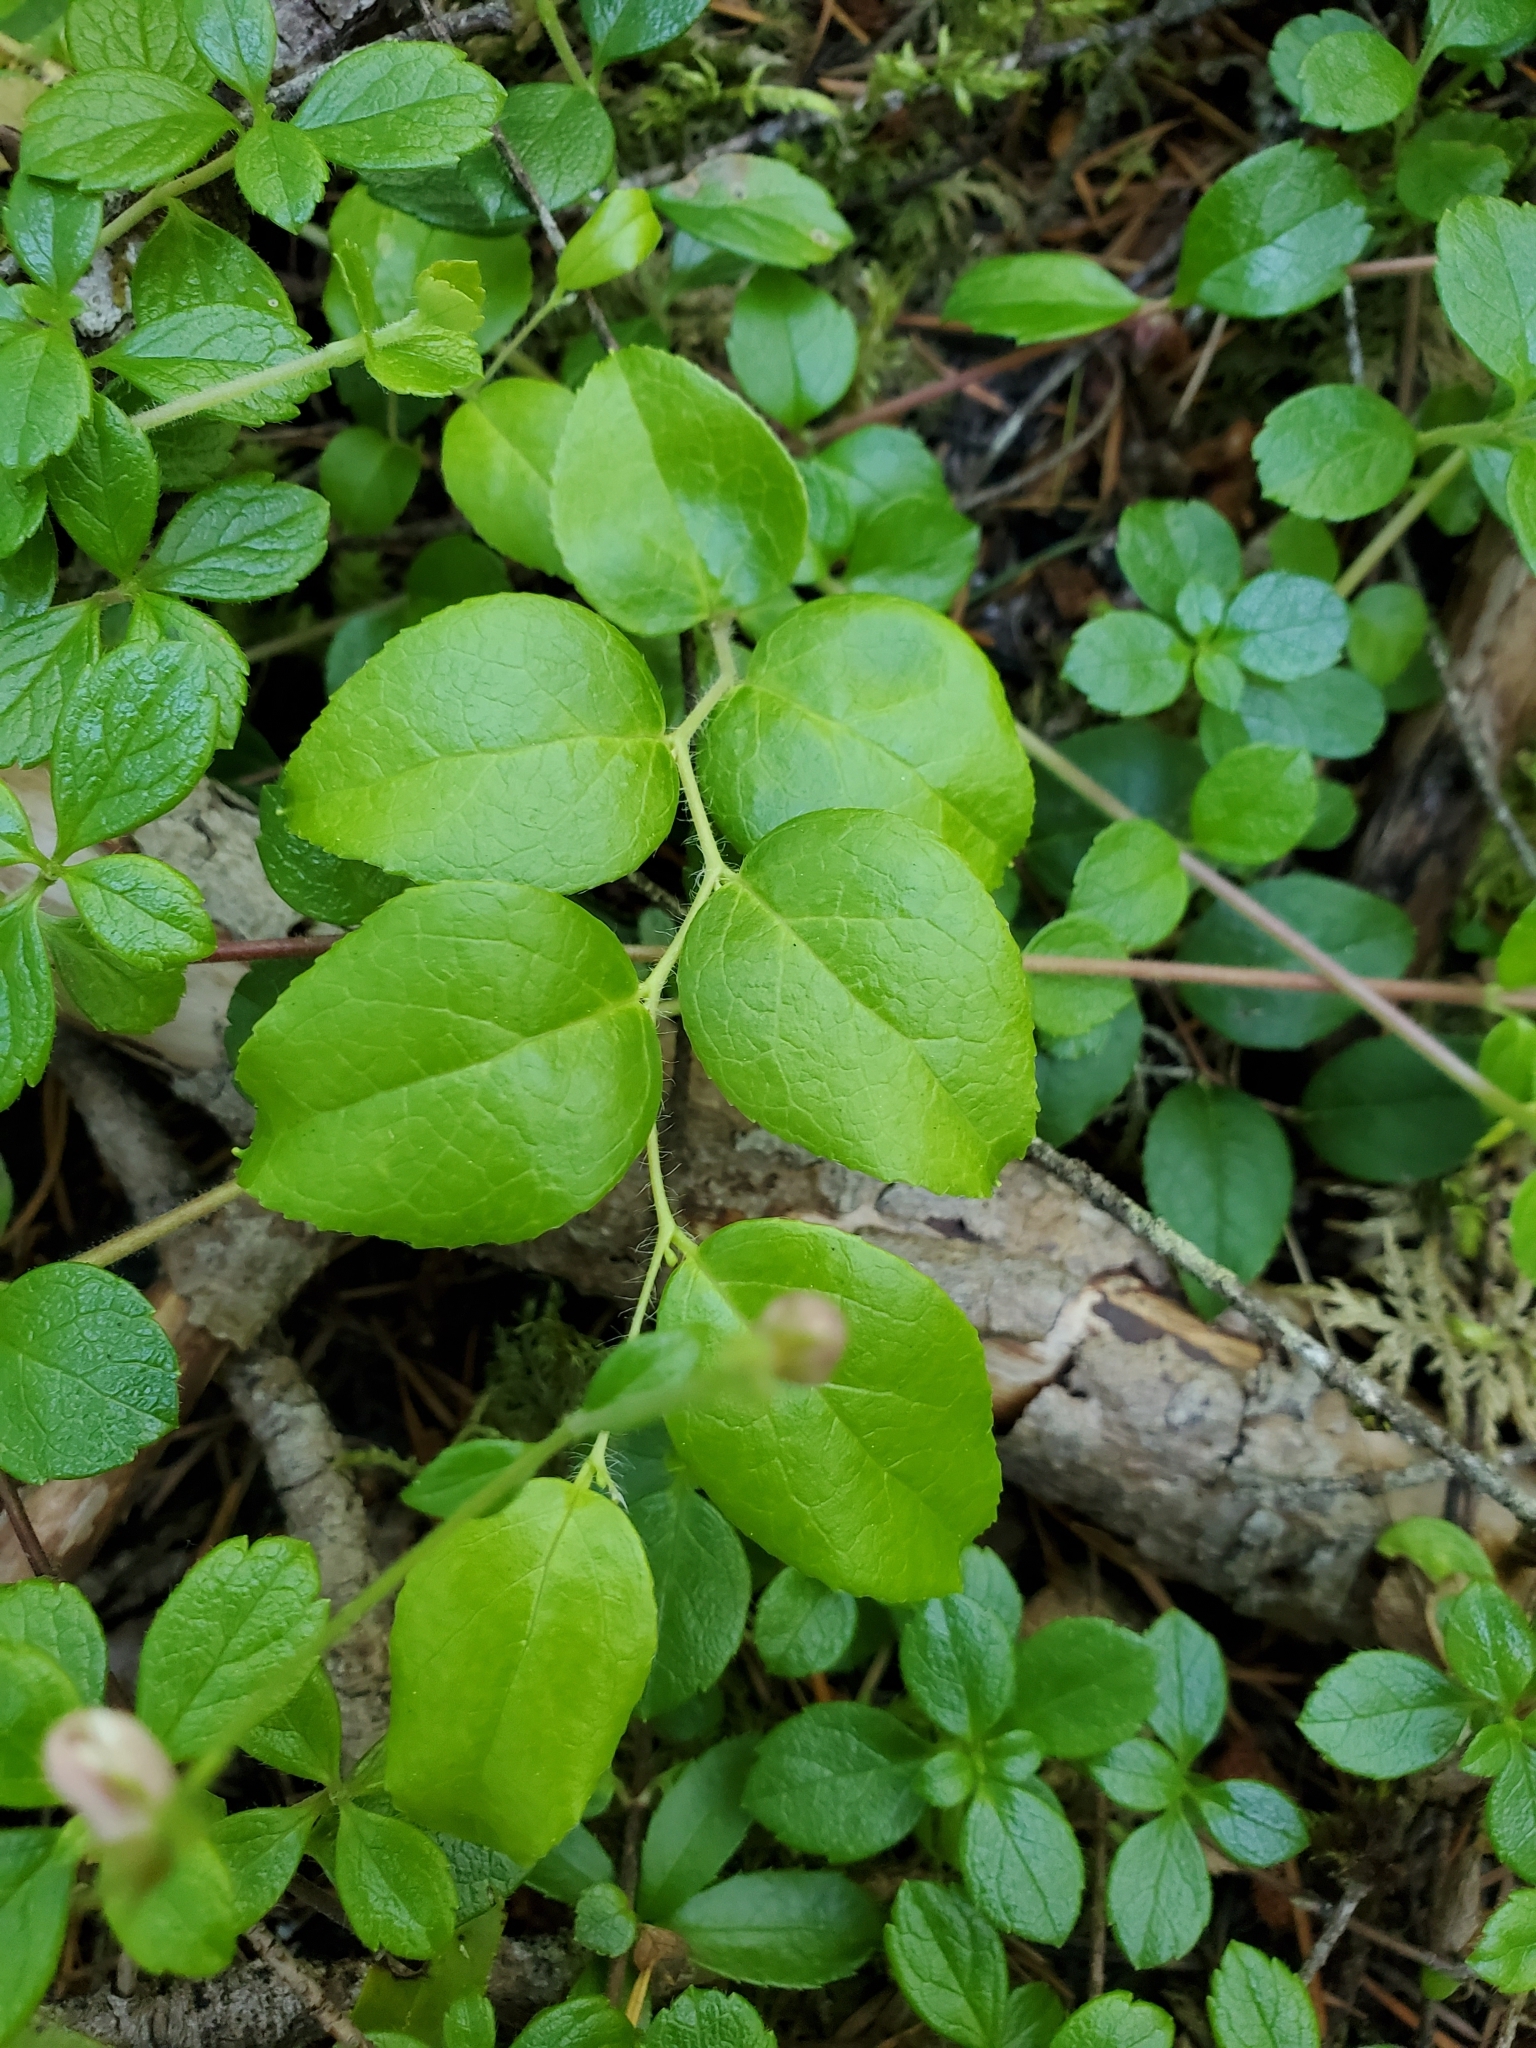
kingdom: Plantae
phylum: Tracheophyta
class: Magnoliopsida
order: Ericales
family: Ericaceae
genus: Gaultheria
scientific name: Gaultheria ovatifolia
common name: Oregon wintergreen
